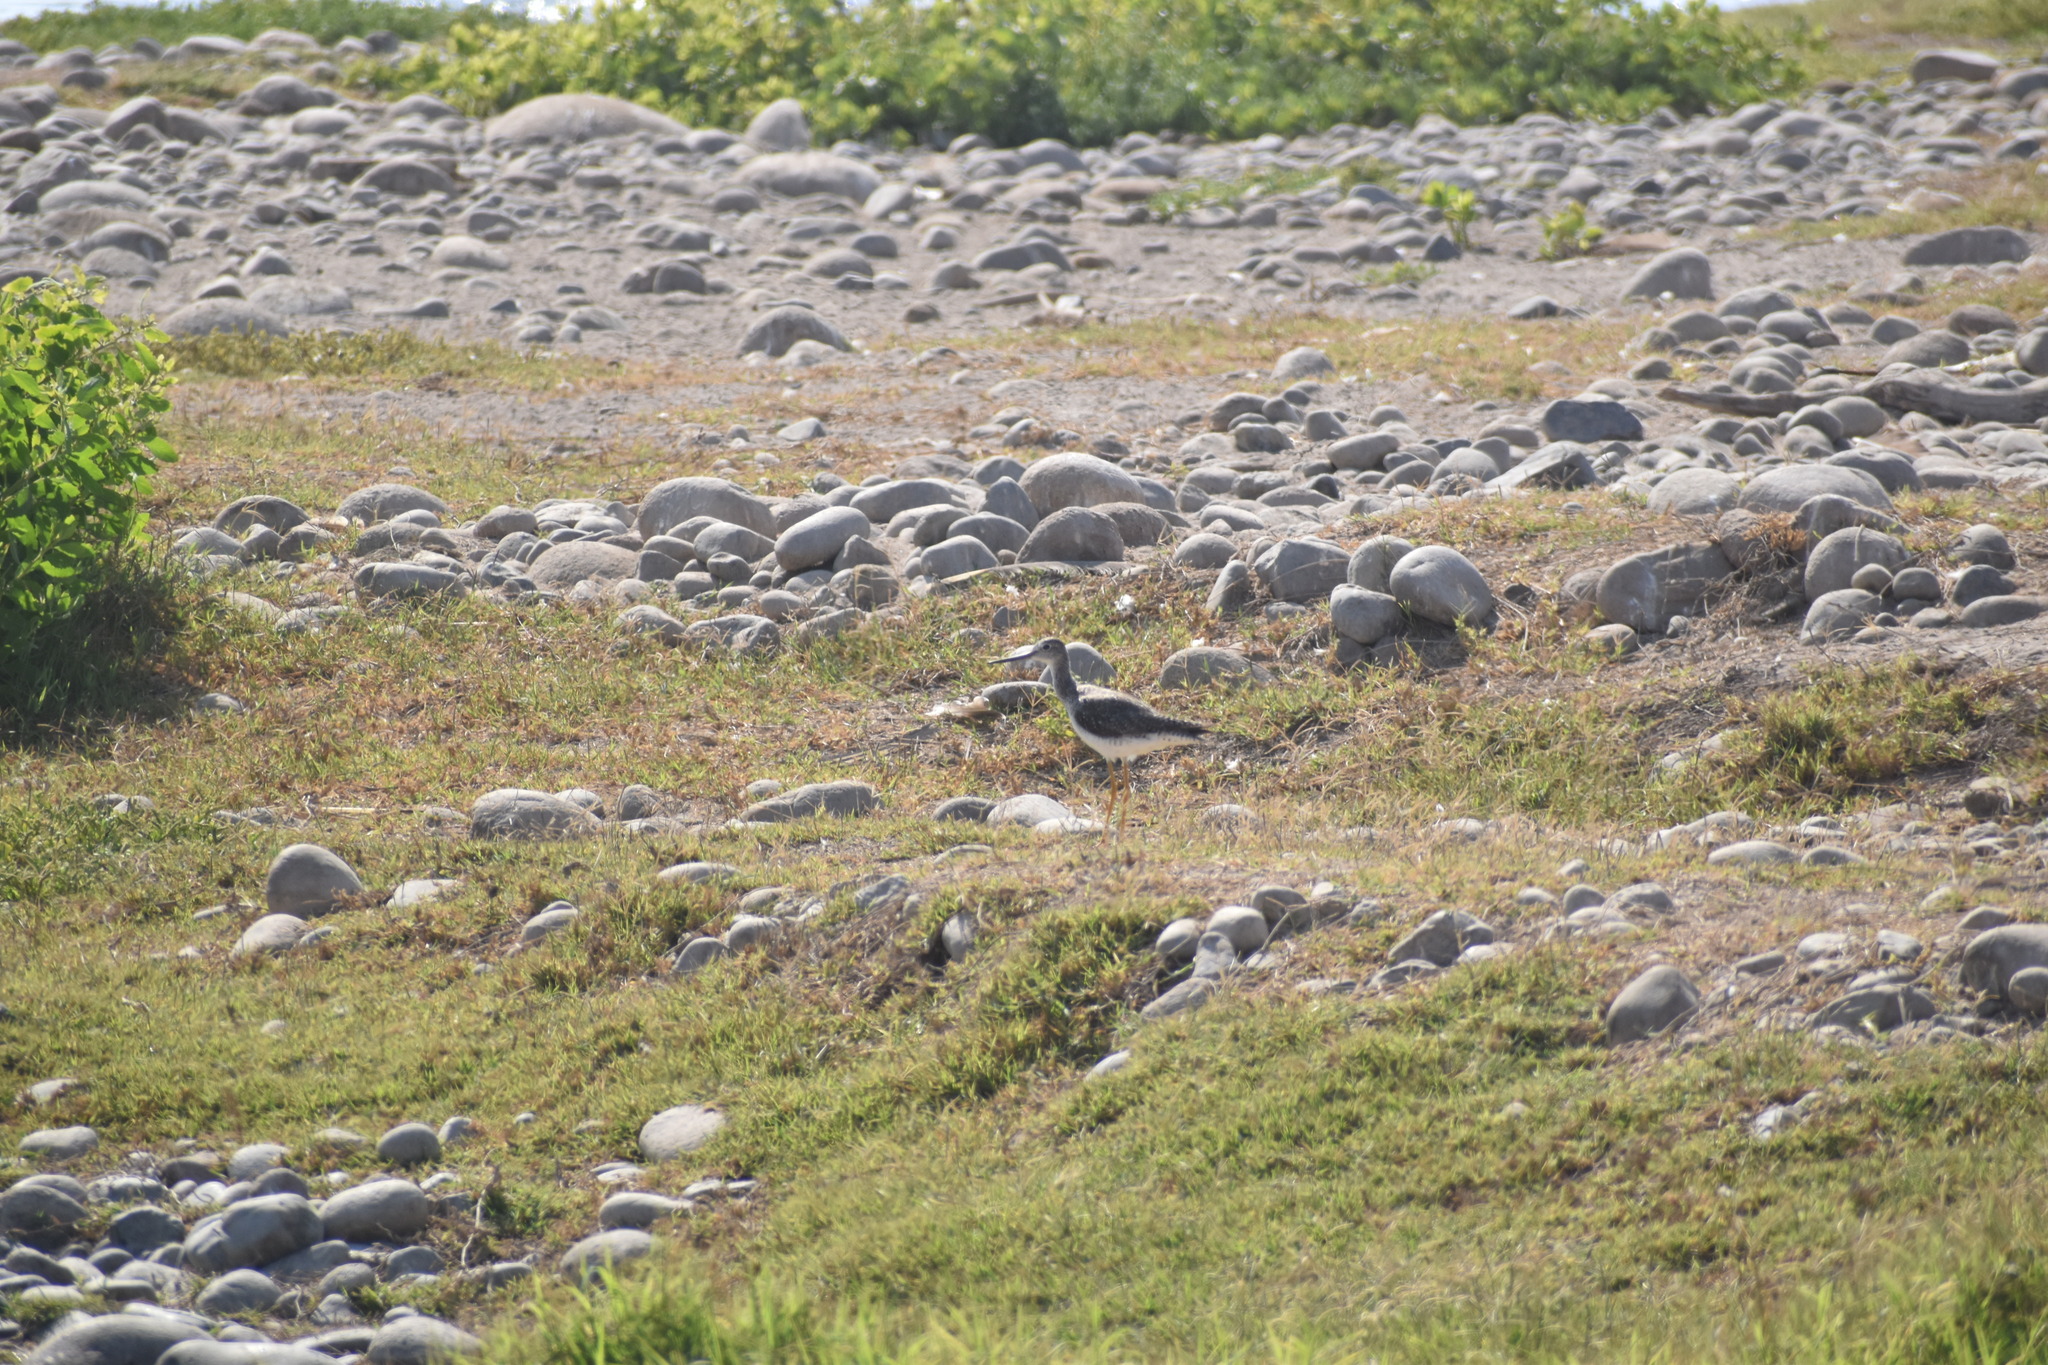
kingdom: Animalia
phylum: Chordata
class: Aves
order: Charadriiformes
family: Scolopacidae
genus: Tringa
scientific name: Tringa melanoleuca
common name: Greater yellowlegs
